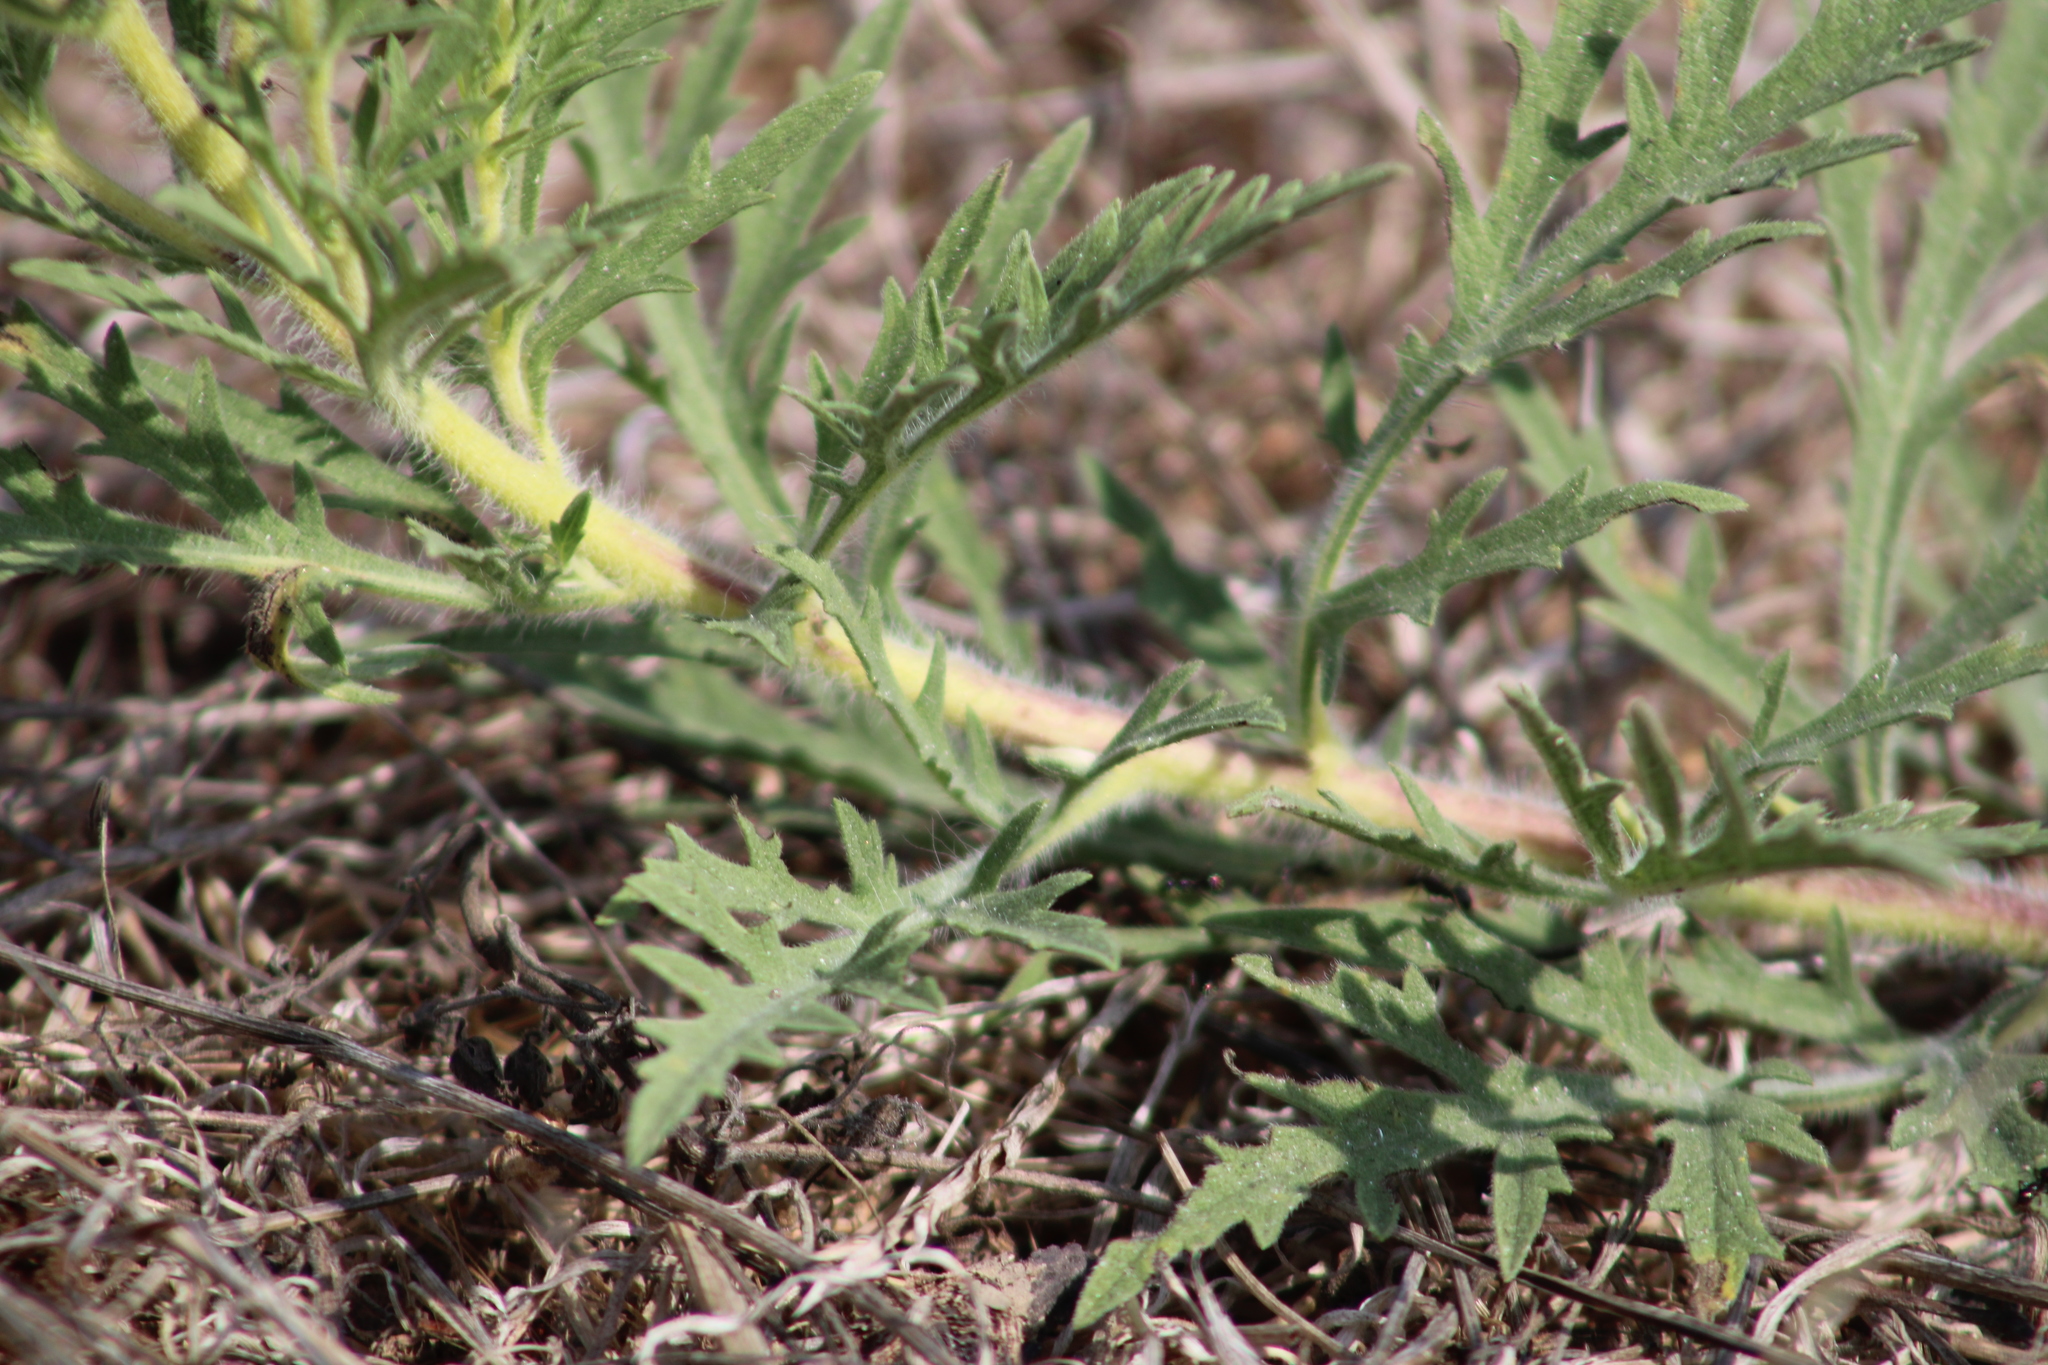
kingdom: Plantae
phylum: Tracheophyta
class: Magnoliopsida
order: Asterales
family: Asteraceae
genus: Ambrosia
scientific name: Ambrosia psilostachya
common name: Perennial ragweed
